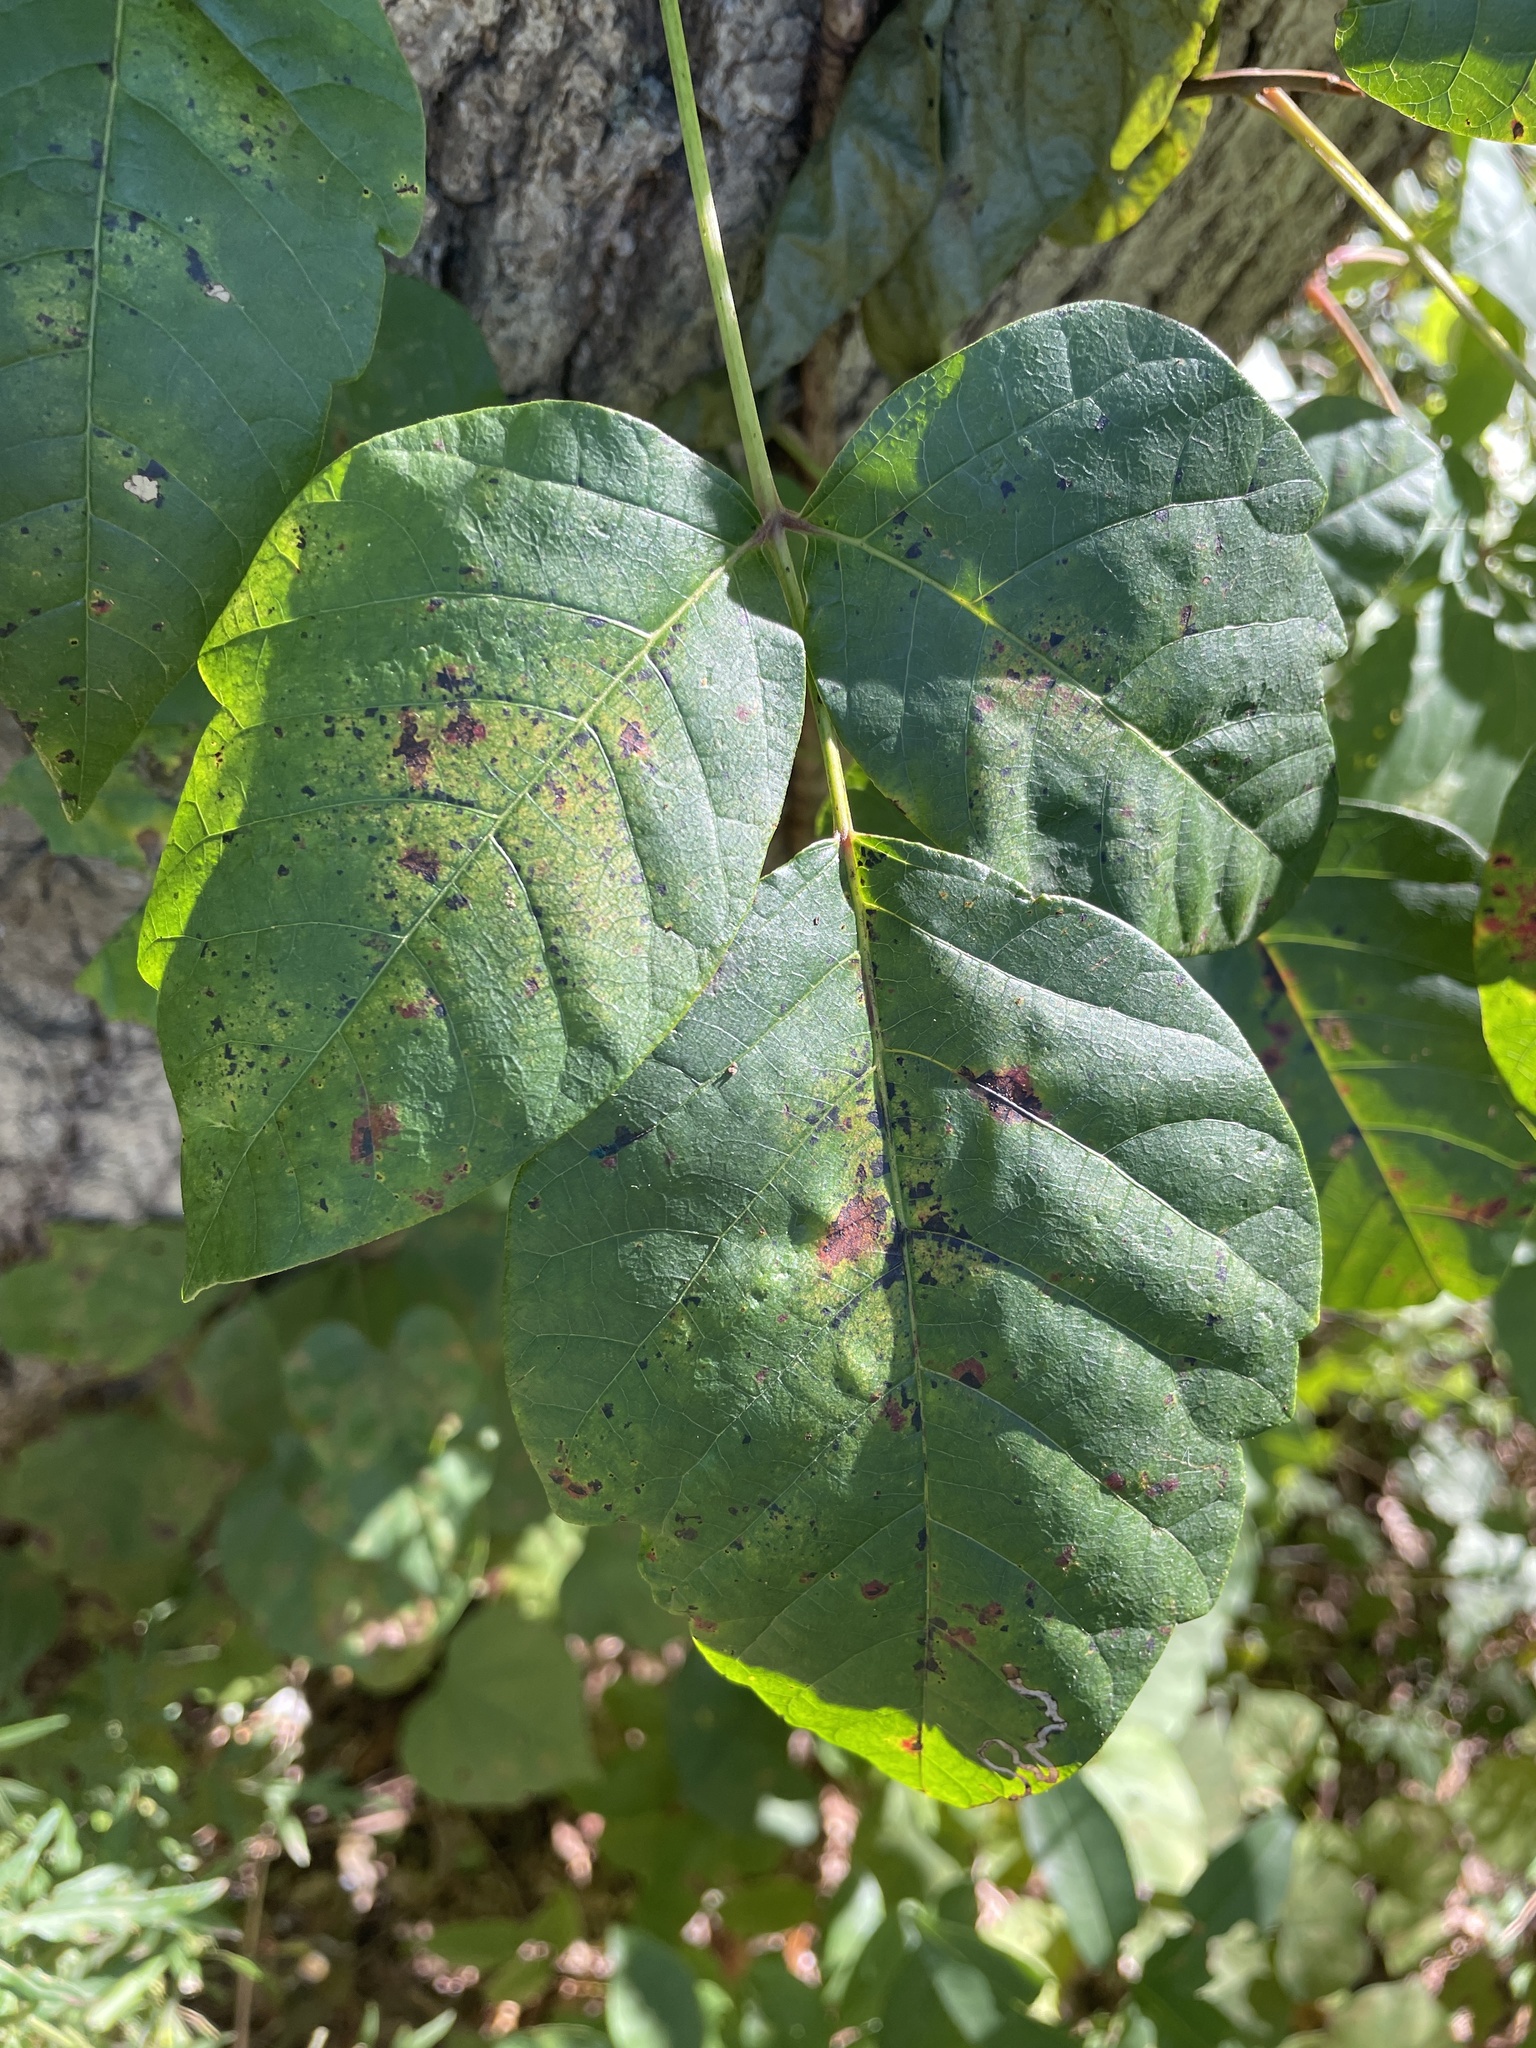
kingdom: Plantae
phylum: Tracheophyta
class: Magnoliopsida
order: Sapindales
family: Anacardiaceae
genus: Toxicodendron
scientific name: Toxicodendron radicans
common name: Poison ivy
